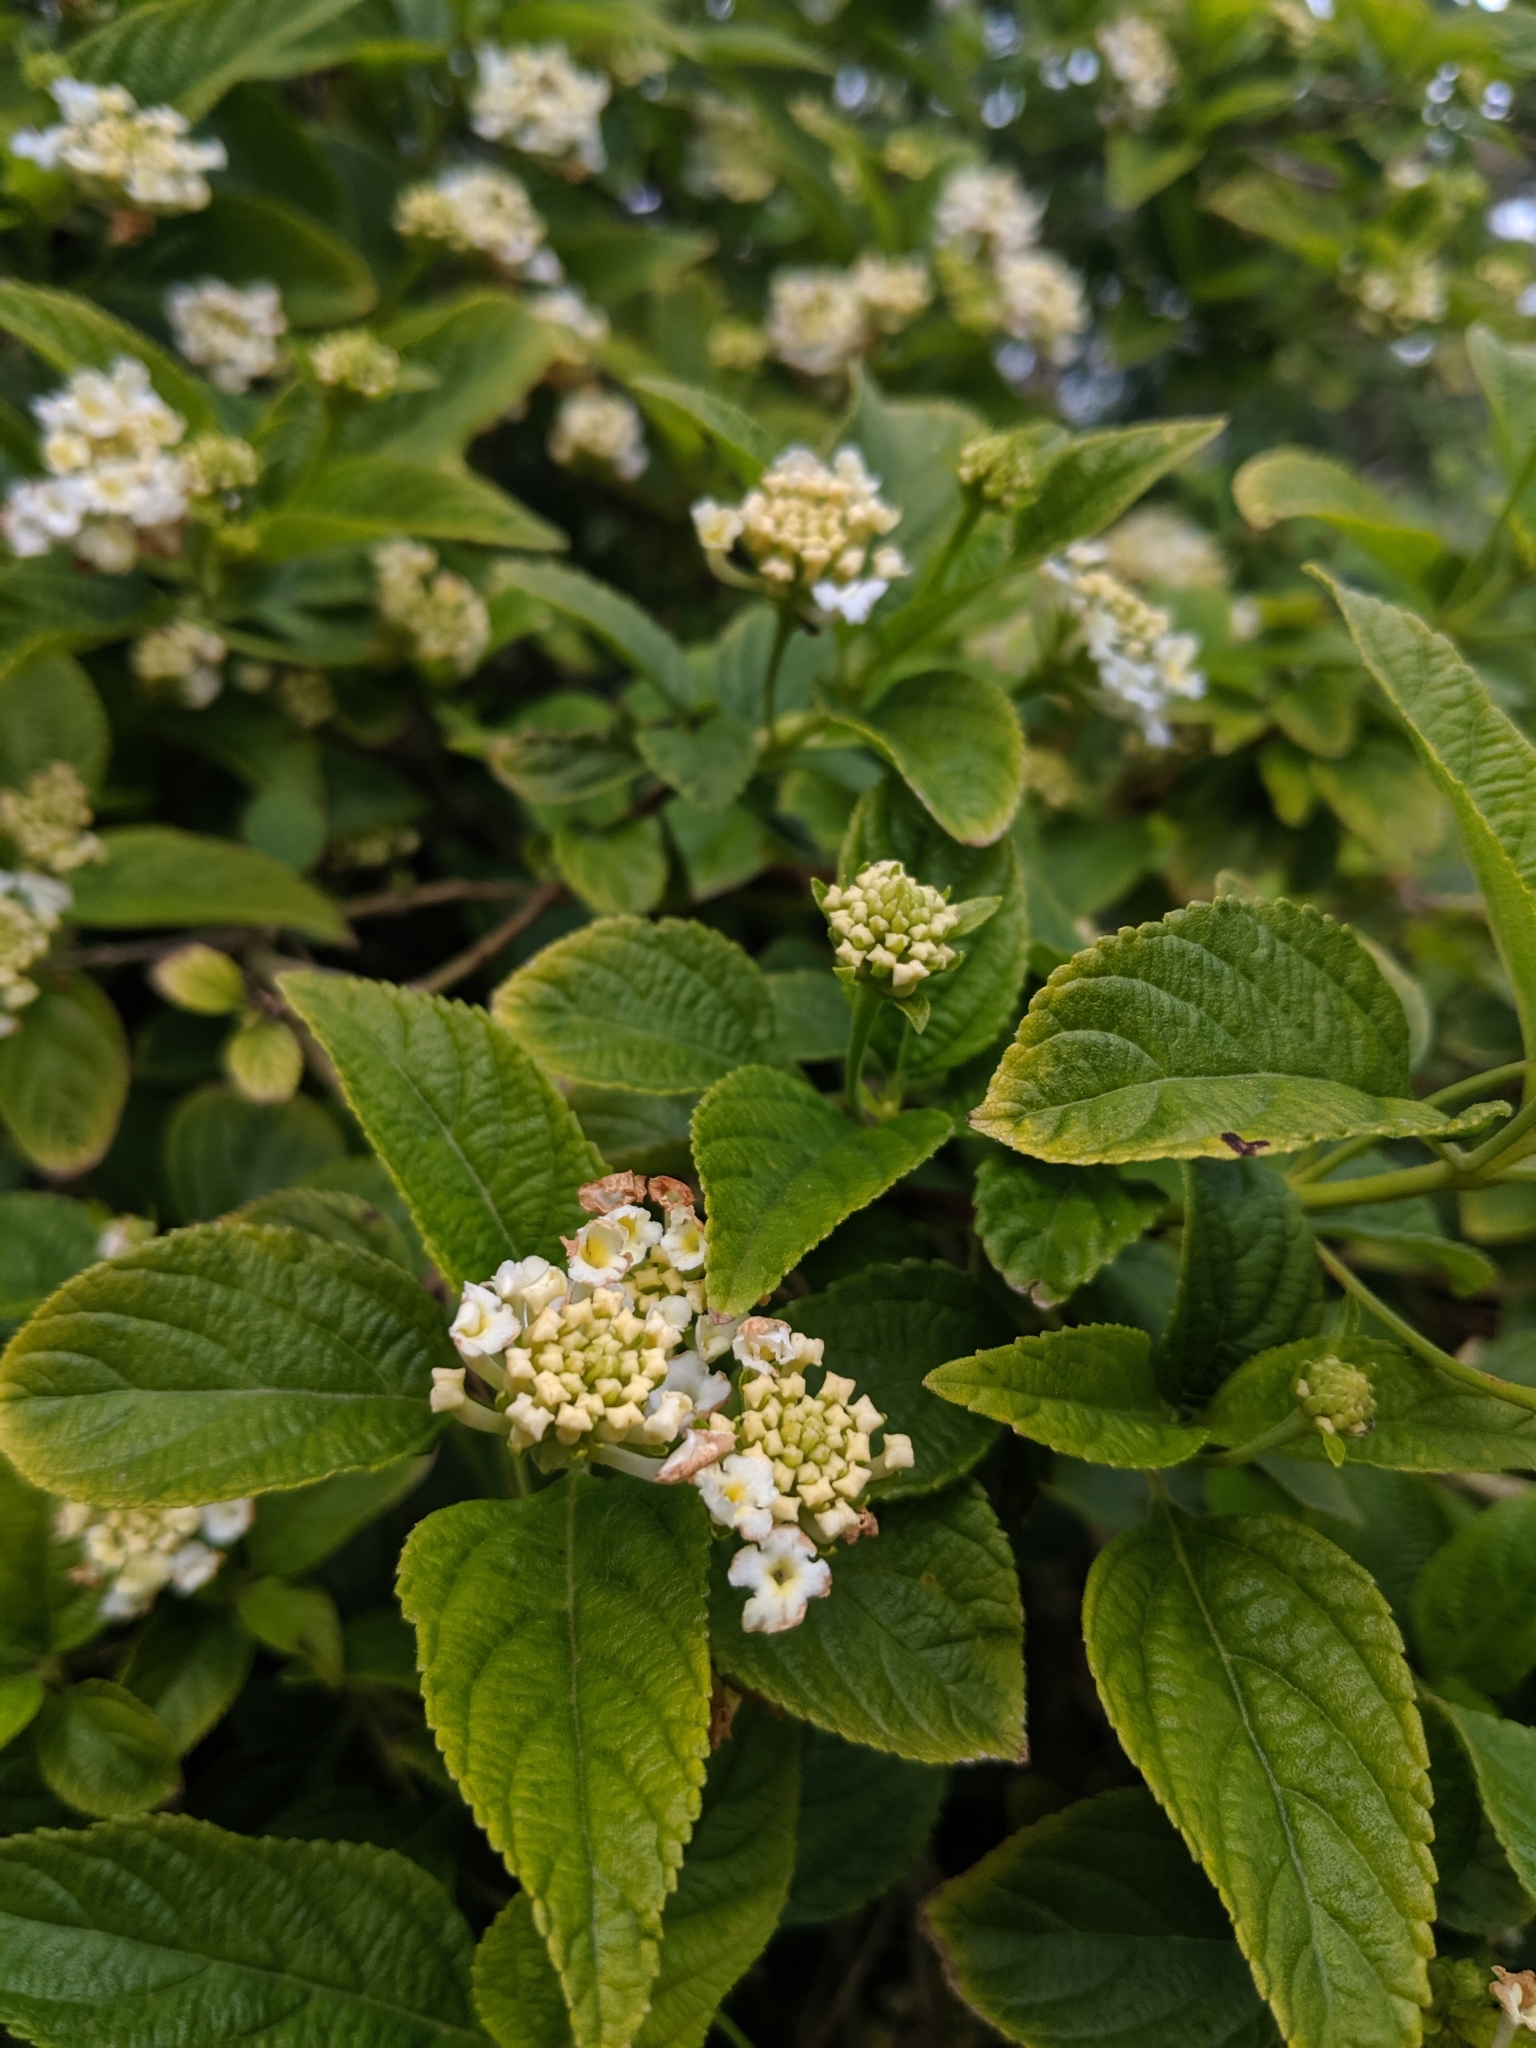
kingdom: Plantae
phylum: Tracheophyta
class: Magnoliopsida
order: Lamiales
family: Verbenaceae
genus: Lantana
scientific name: Lantana montevidensis
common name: Trailing shrubverbena
